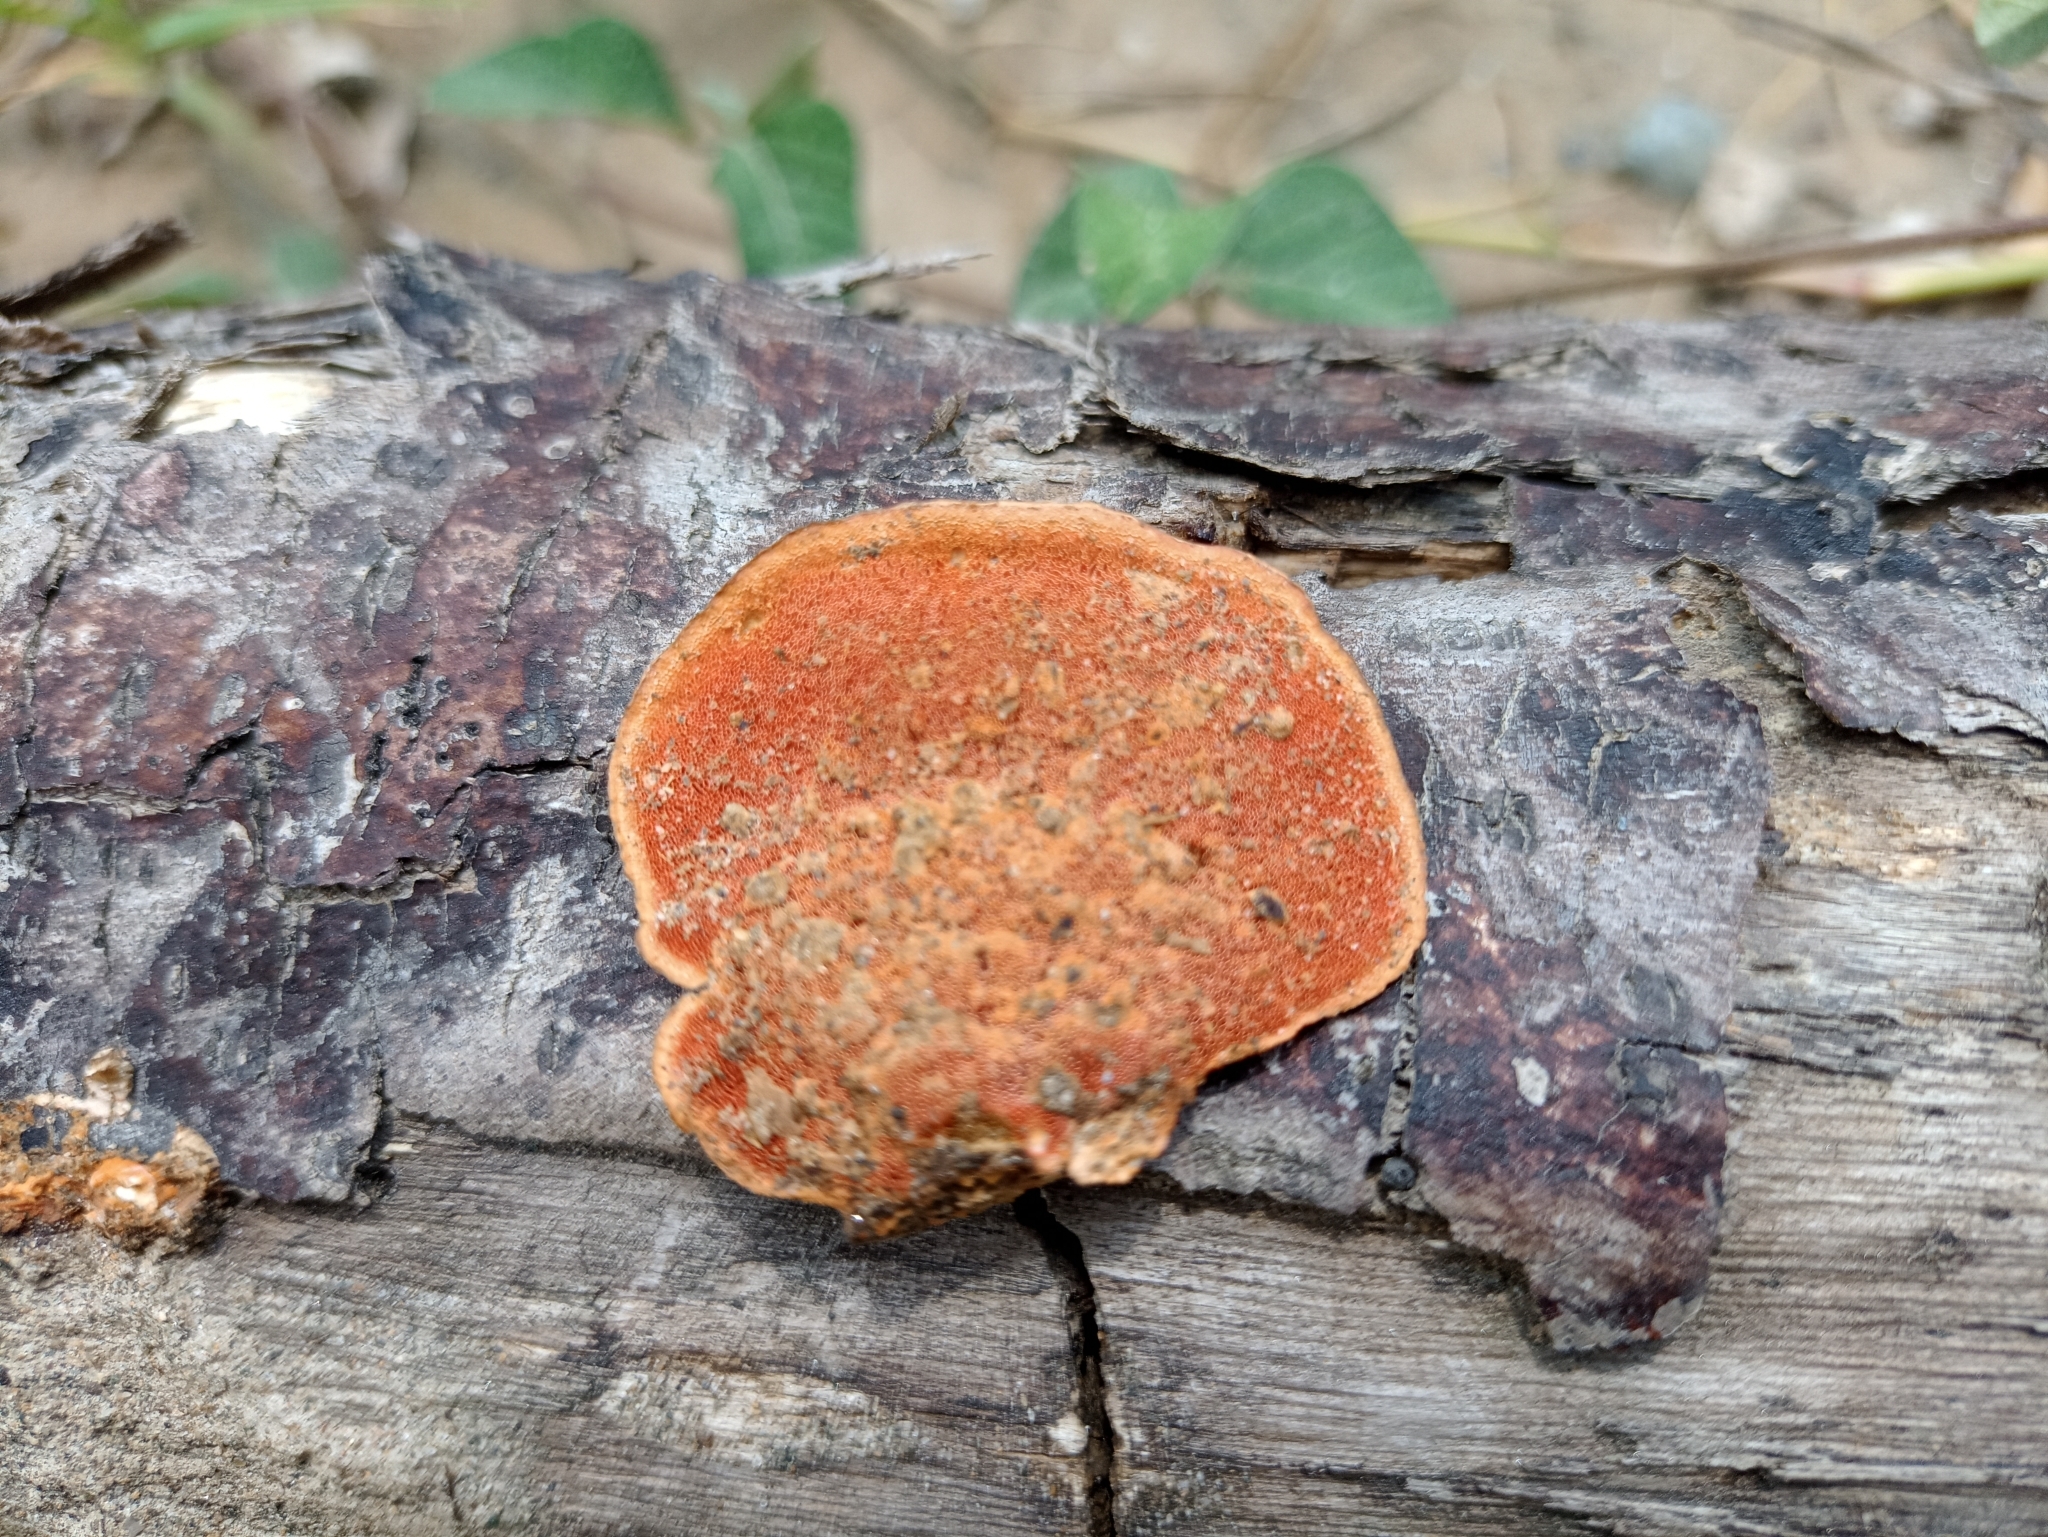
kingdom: Fungi
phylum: Basidiomycota
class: Agaricomycetes
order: Polyporales
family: Polyporaceae
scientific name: Polyporaceae
